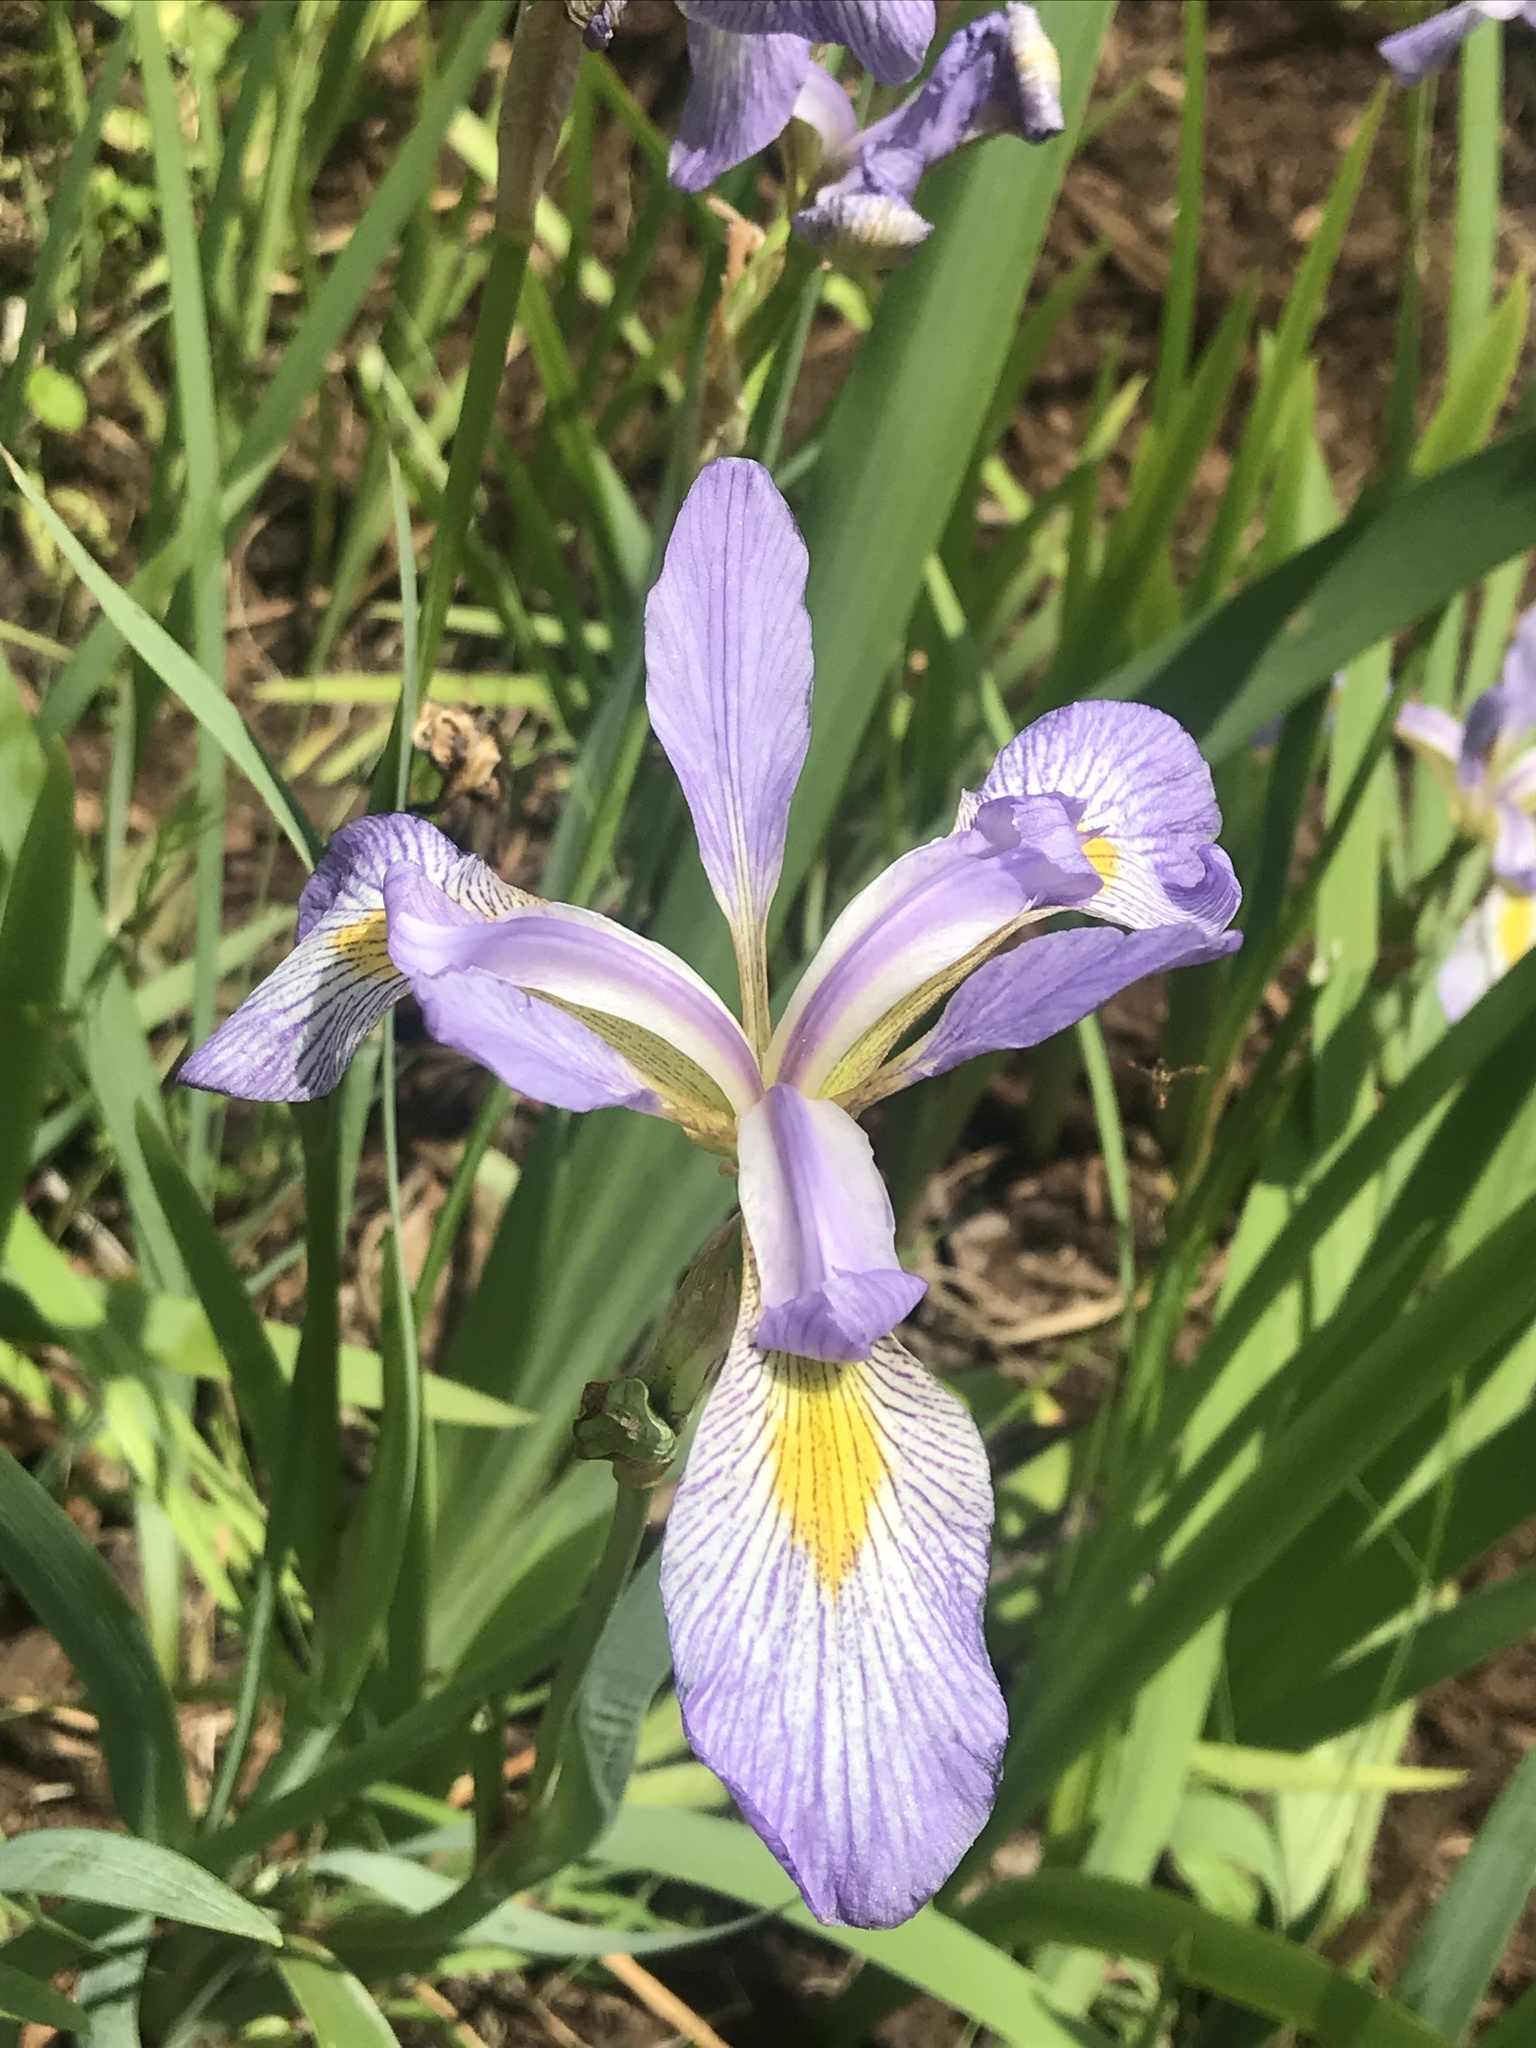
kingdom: Plantae
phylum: Tracheophyta
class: Liliopsida
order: Asparagales
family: Iridaceae
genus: Iris
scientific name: Iris virginica
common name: Southern blue flag
